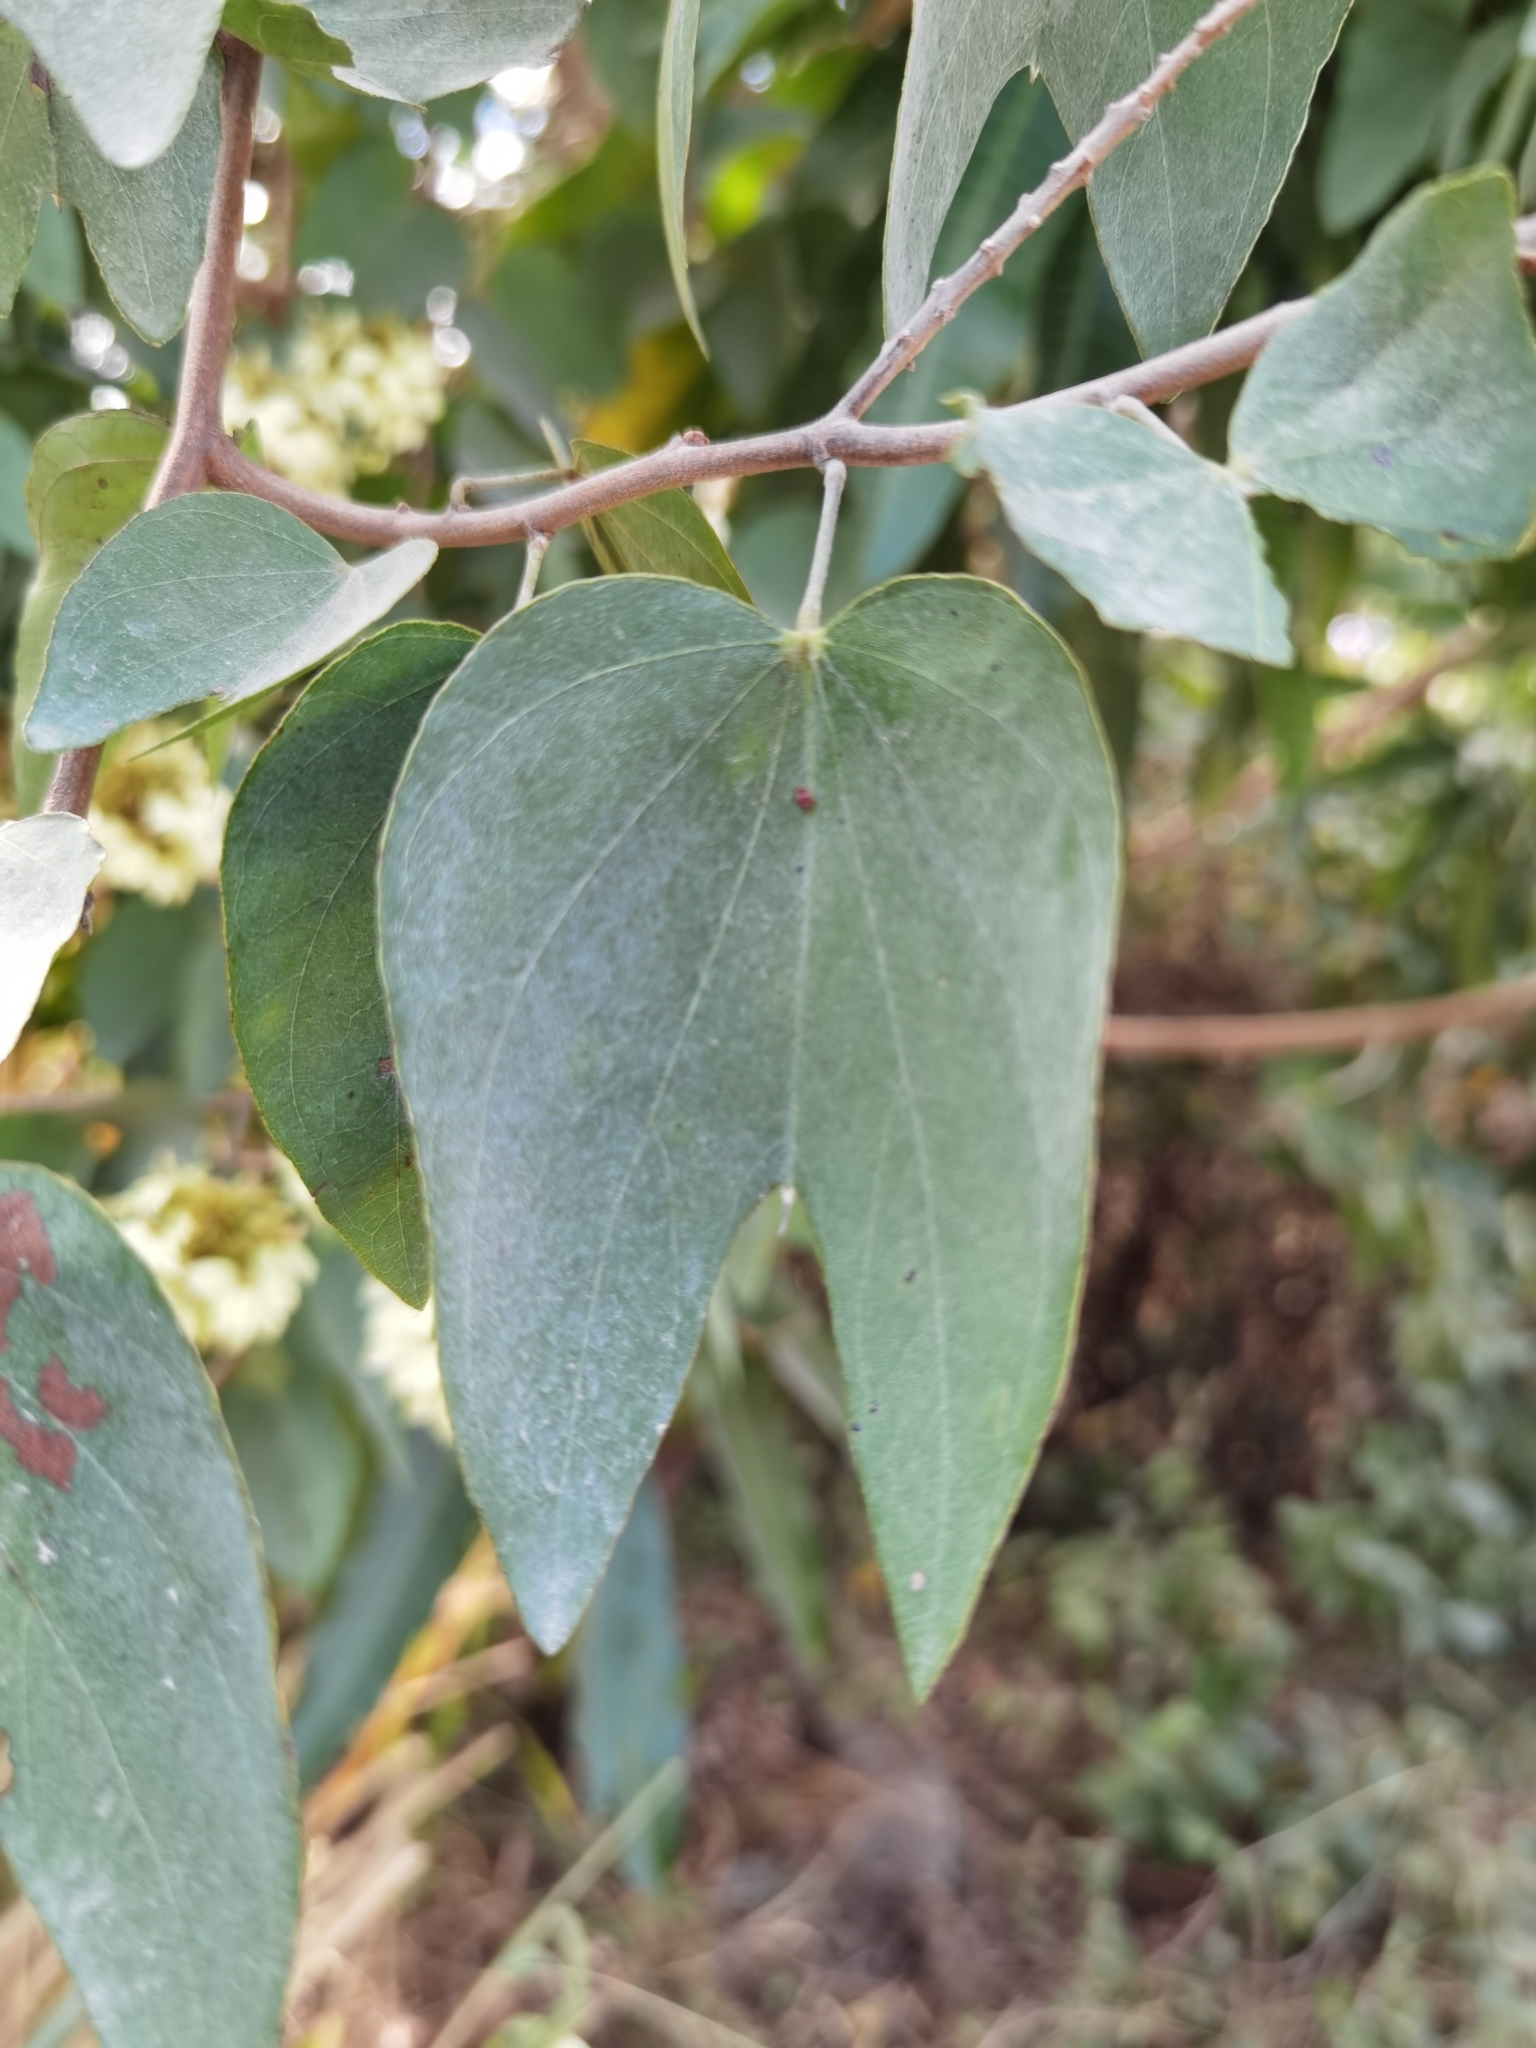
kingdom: Plantae
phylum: Tracheophyta
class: Magnoliopsida
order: Fabales
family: Fabaceae
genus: Schnella
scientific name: Schnella glabra
